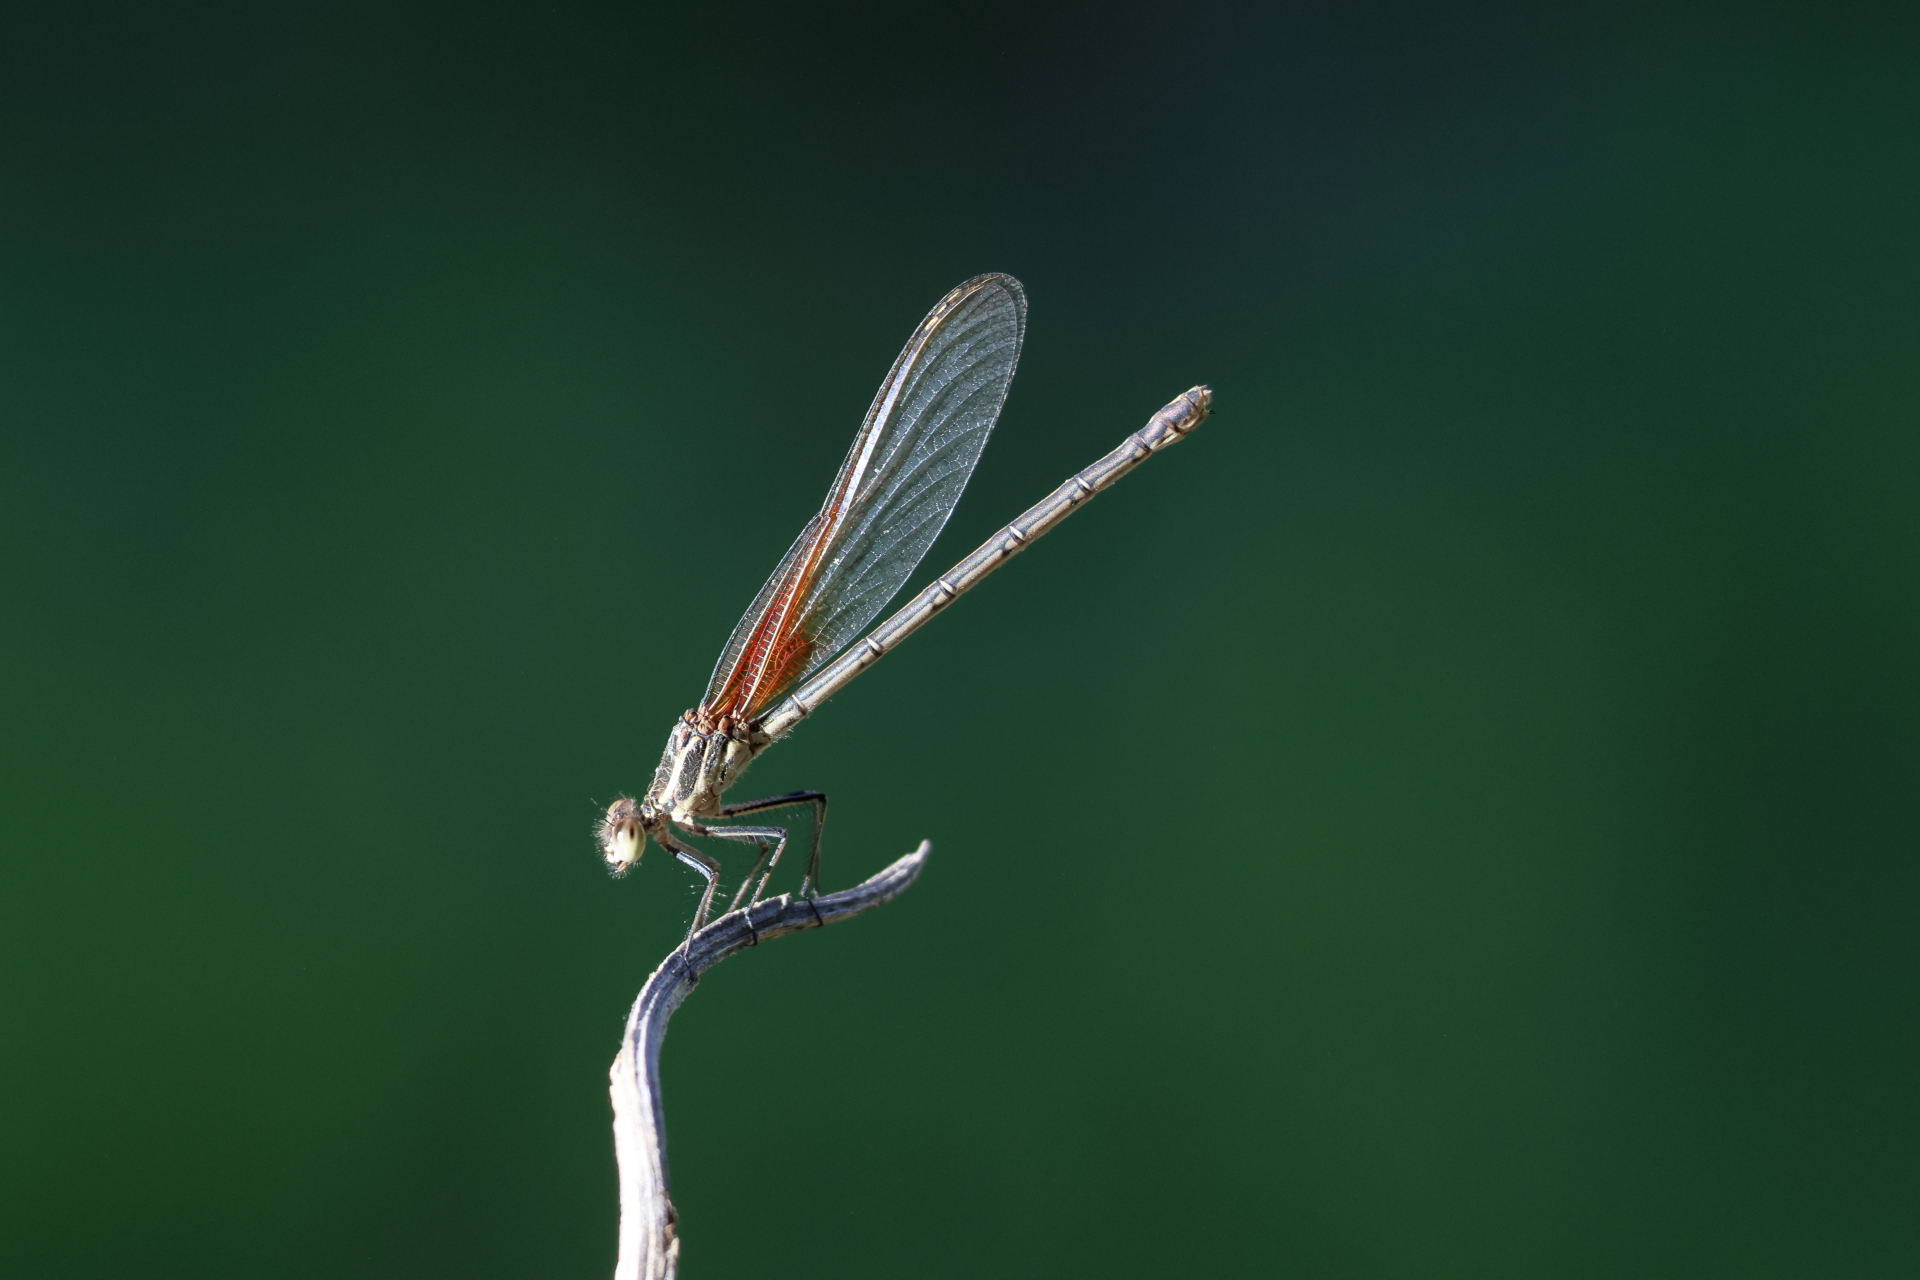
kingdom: Animalia
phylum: Arthropoda
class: Insecta
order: Odonata
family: Calopterygidae
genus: Hetaerina
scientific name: Hetaerina americana
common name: American rubyspot
